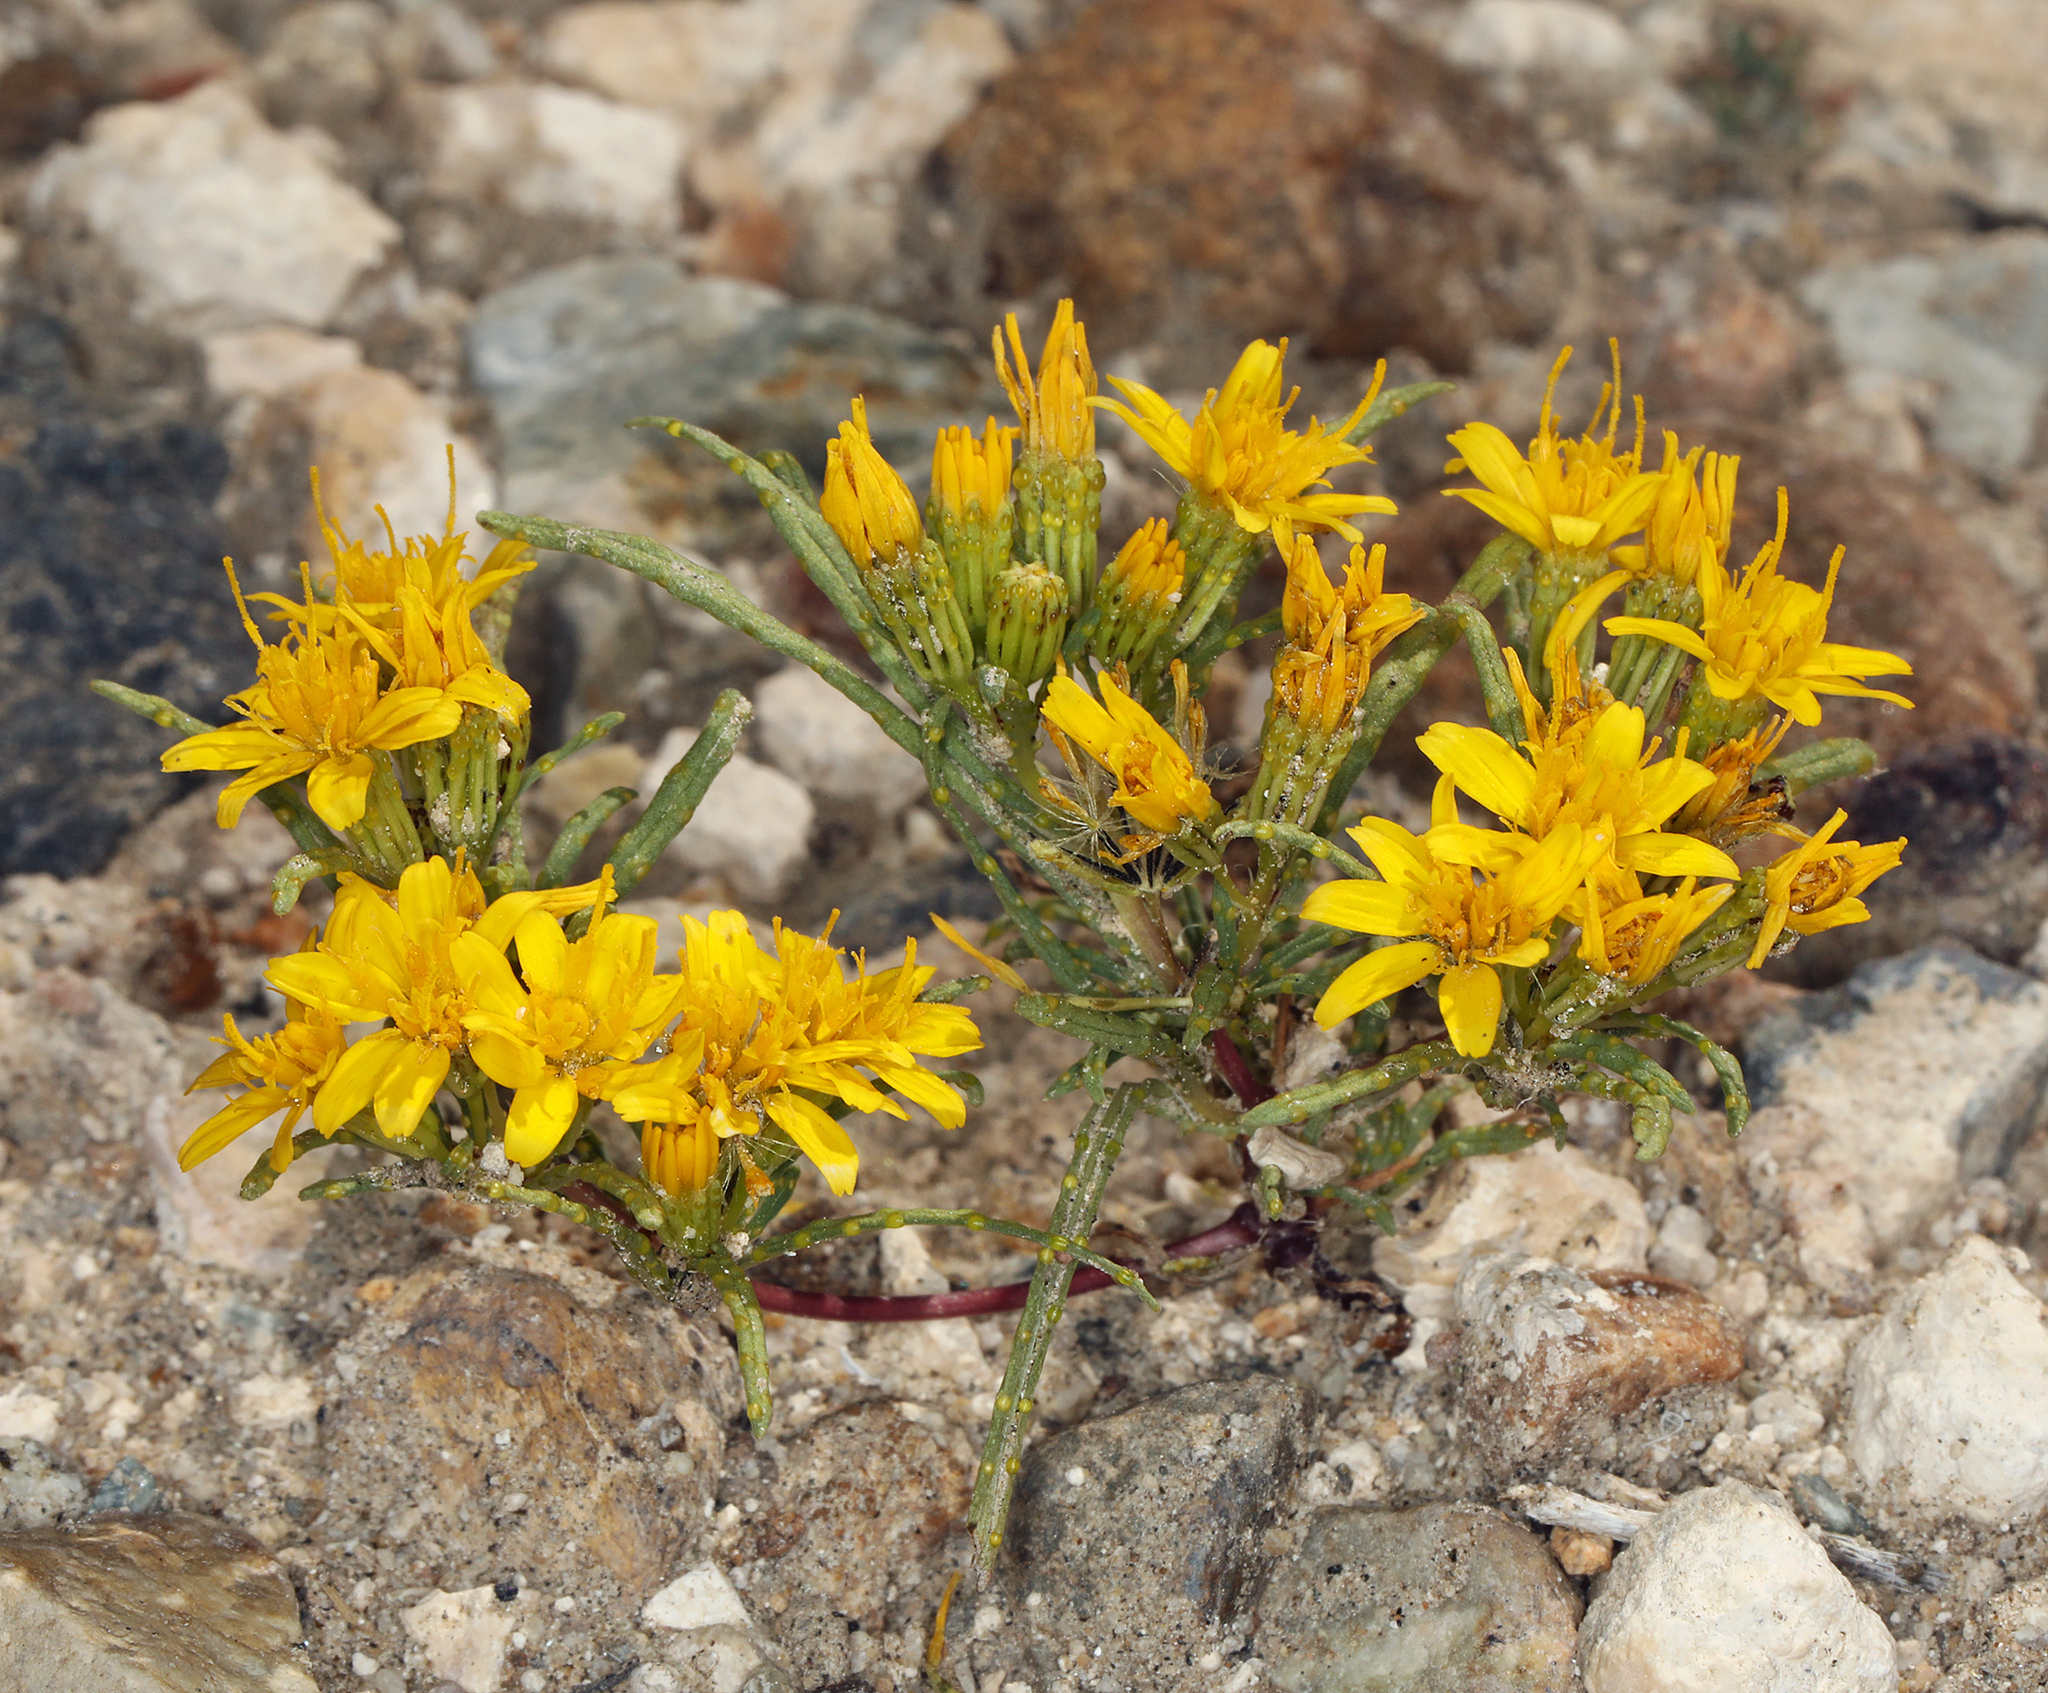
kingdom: Plantae
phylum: Tracheophyta
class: Magnoliopsida
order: Asterales
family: Asteraceae
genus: Pectis
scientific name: Pectis papposa
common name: Many-bristle chinchweed
